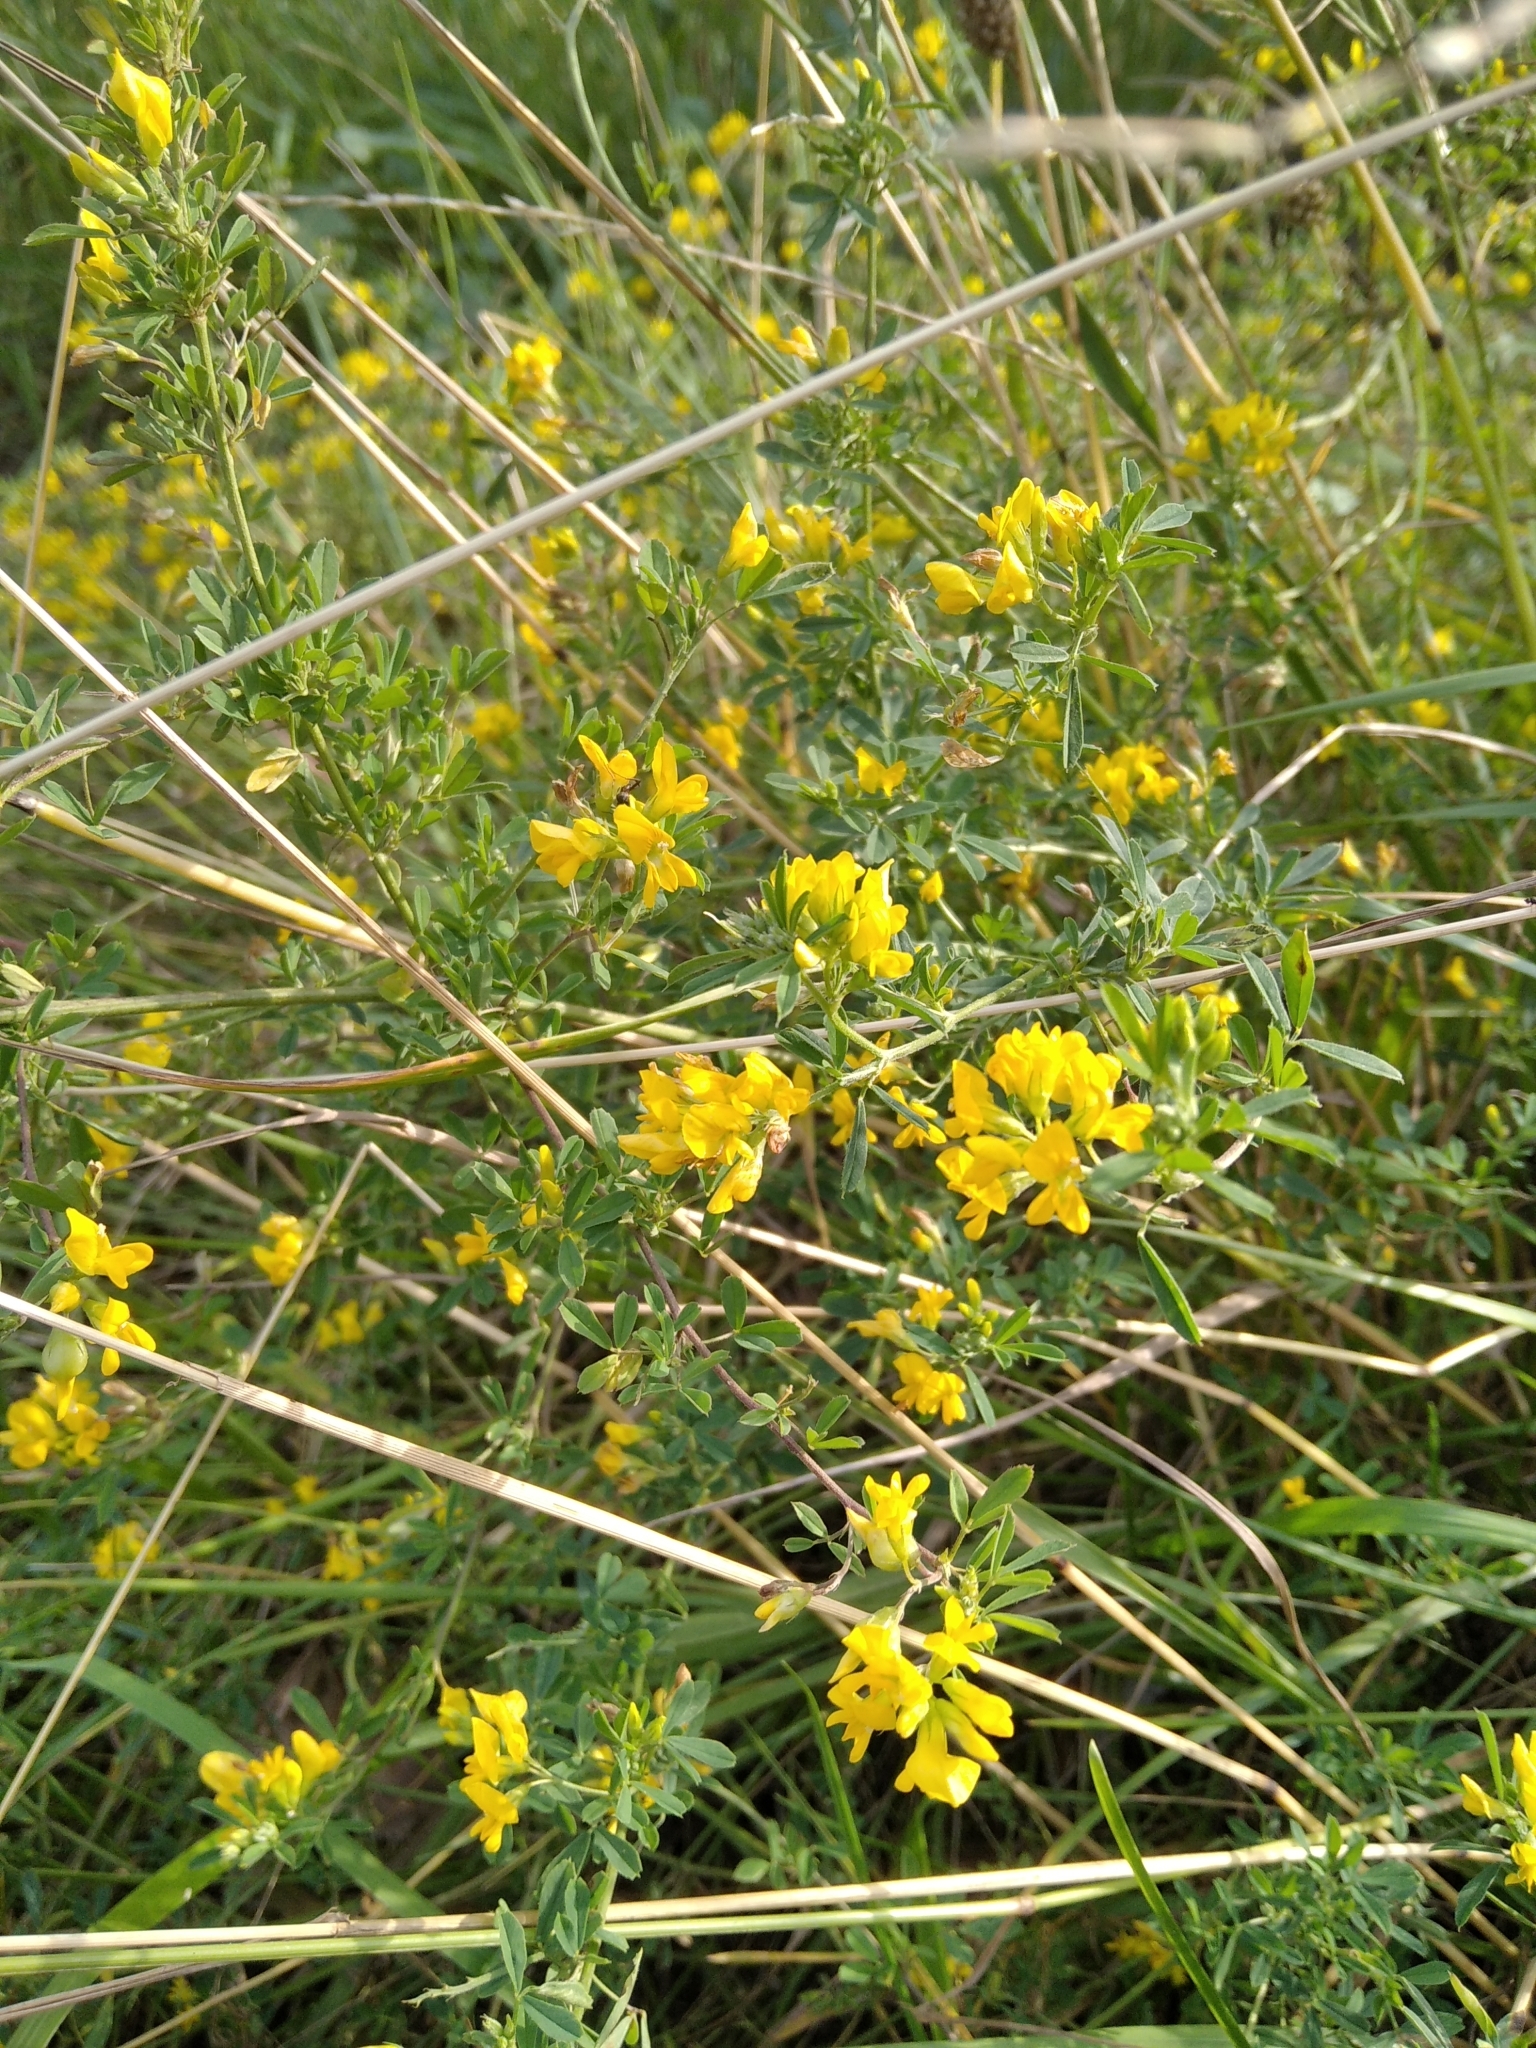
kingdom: Plantae
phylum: Tracheophyta
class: Magnoliopsida
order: Fabales
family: Fabaceae
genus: Medicago
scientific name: Medicago falcata
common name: Sickle medick
